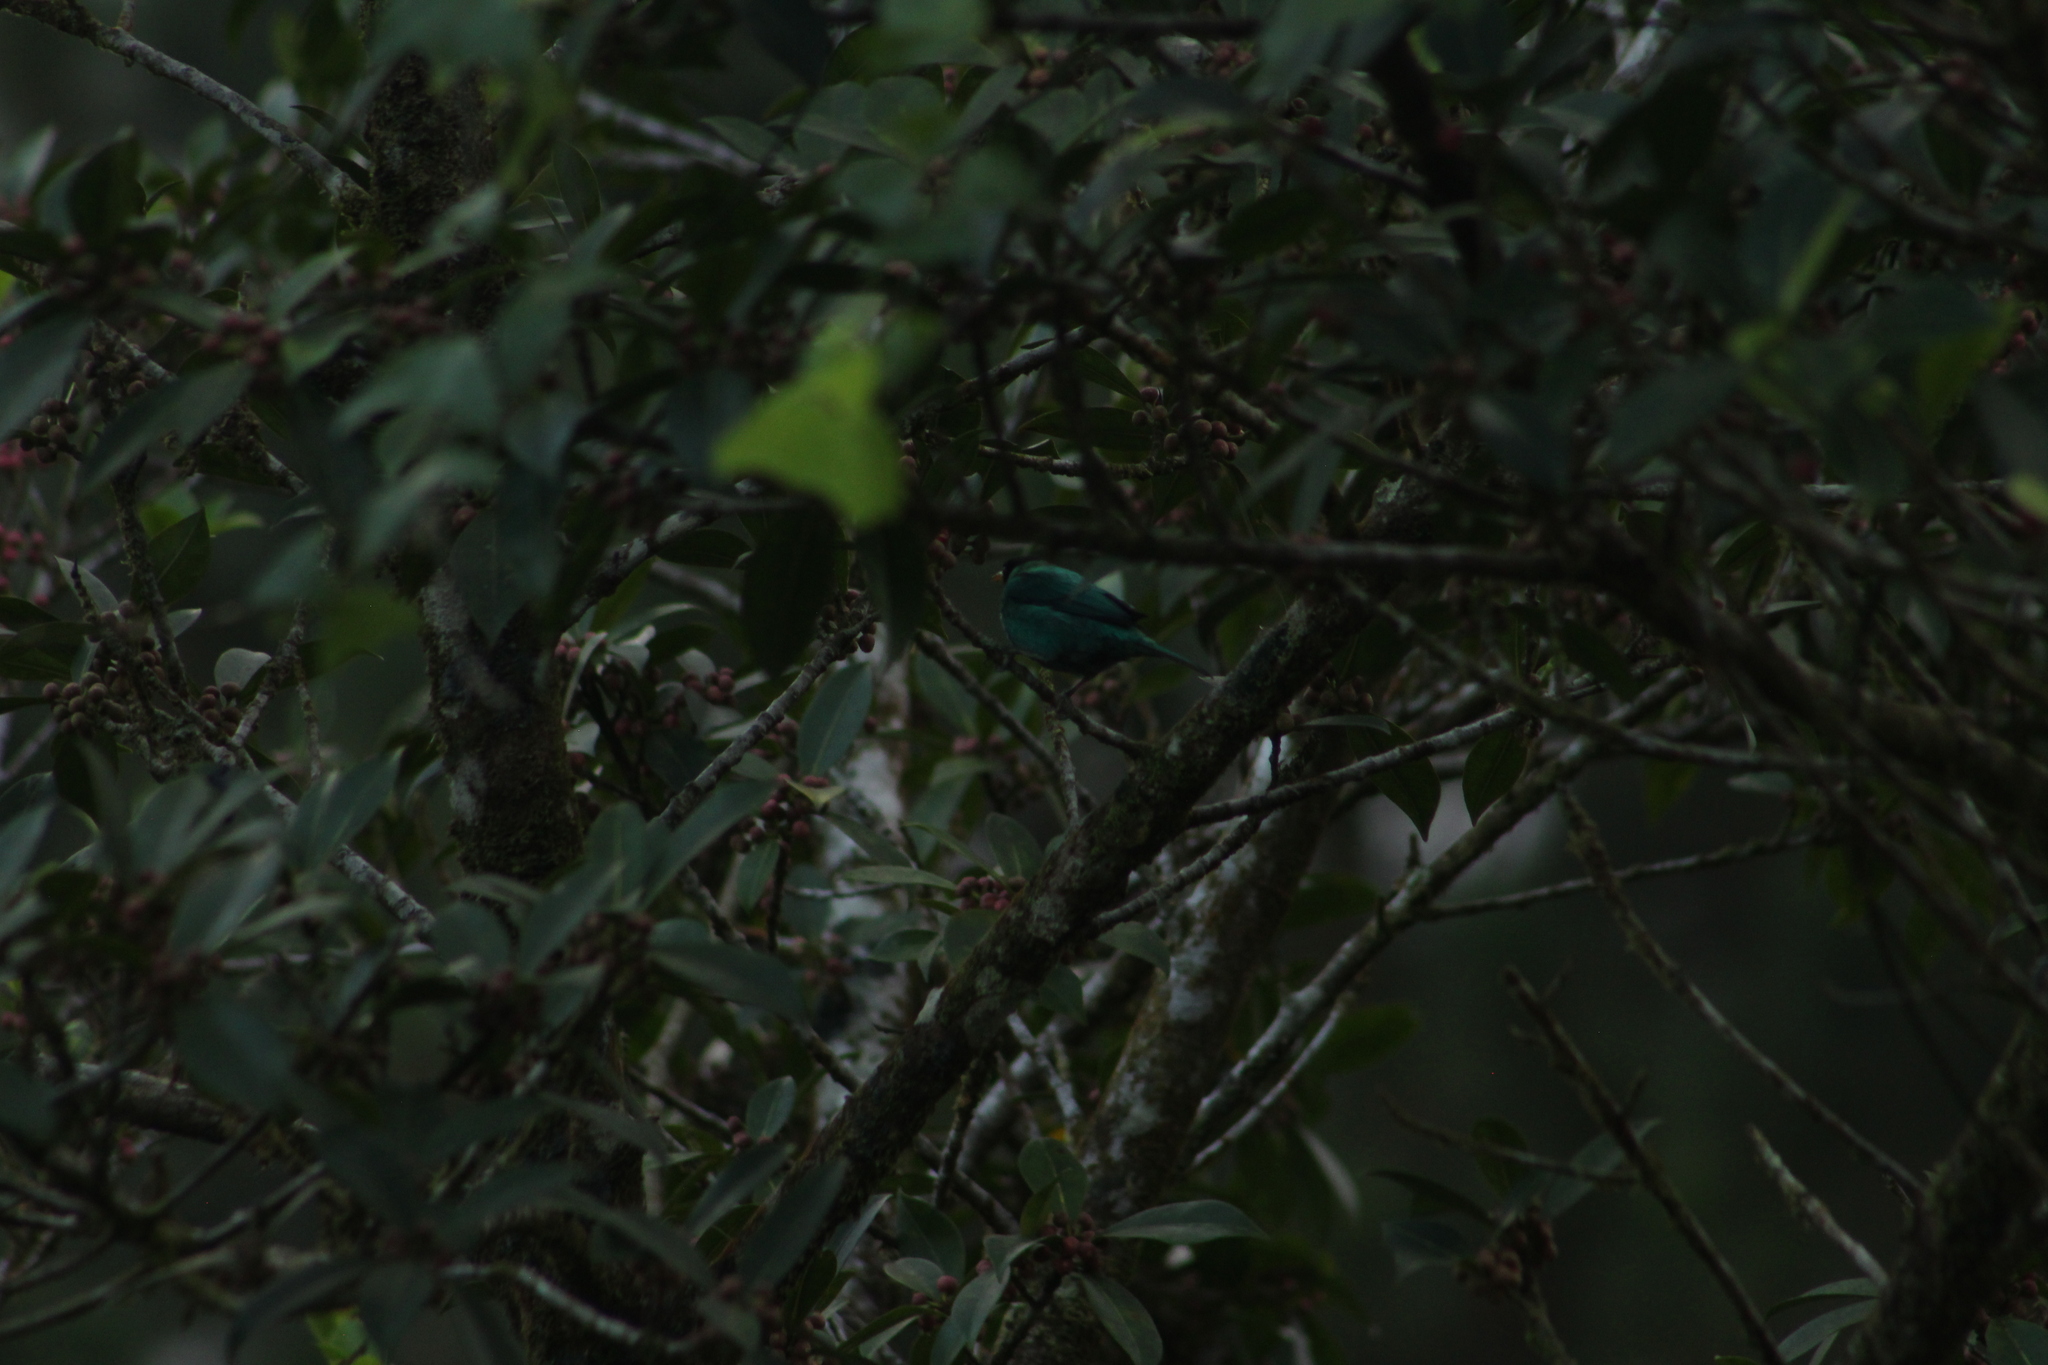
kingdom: Animalia
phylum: Chordata
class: Aves
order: Passeriformes
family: Thraupidae
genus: Chlorophanes
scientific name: Chlorophanes spiza
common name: Green honeycreeper
